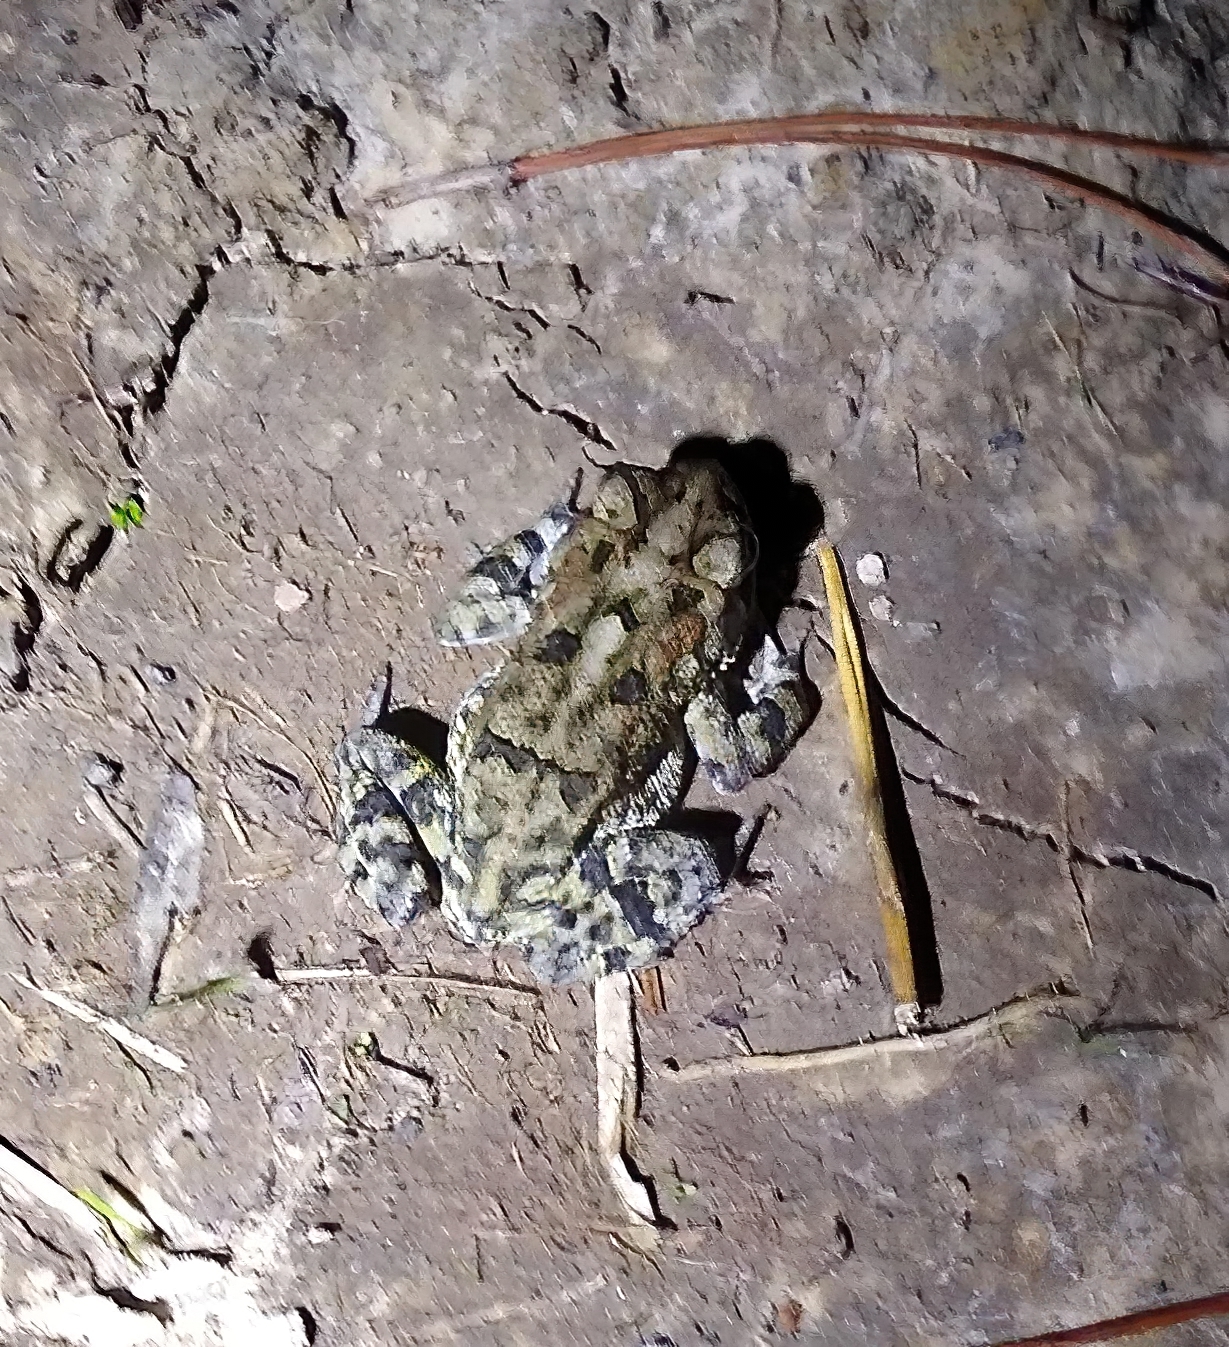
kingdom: Animalia
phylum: Chordata
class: Amphibia
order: Anura
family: Bufonidae
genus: Anaxyrus
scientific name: Anaxyrus terrestris
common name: Southern toad
